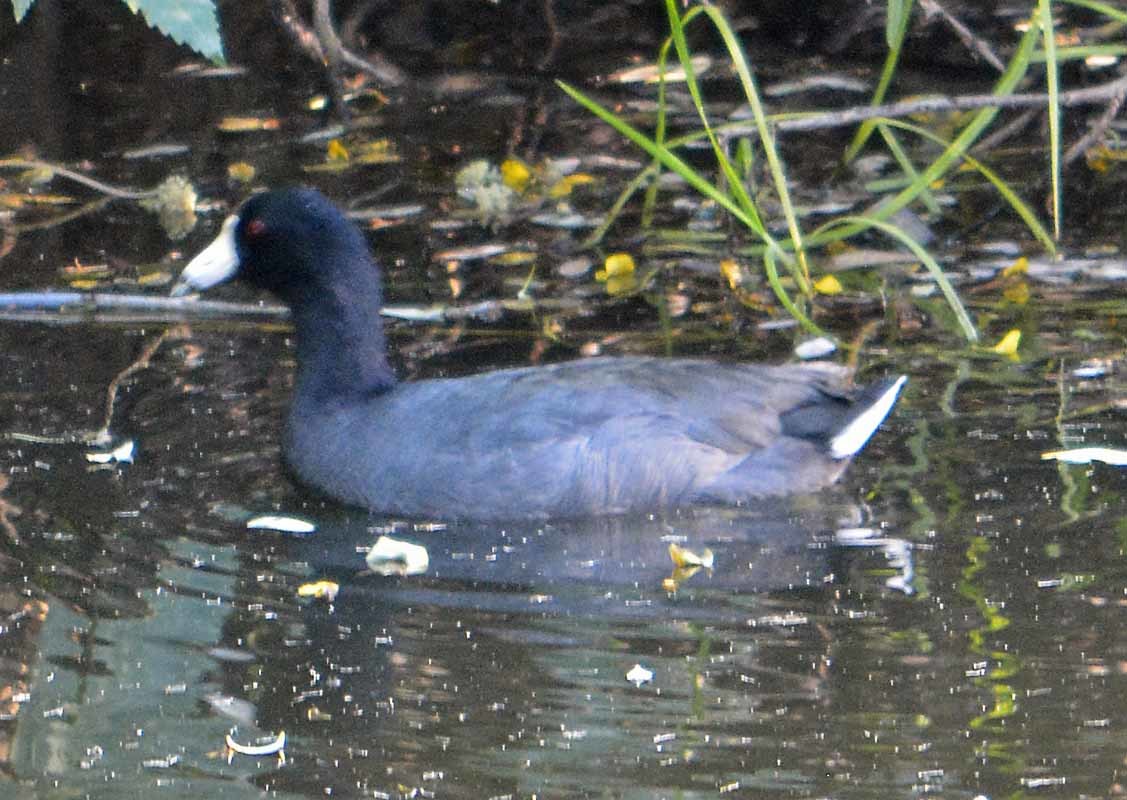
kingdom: Animalia
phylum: Chordata
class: Aves
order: Gruiformes
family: Rallidae
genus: Fulica
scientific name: Fulica americana
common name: American coot
